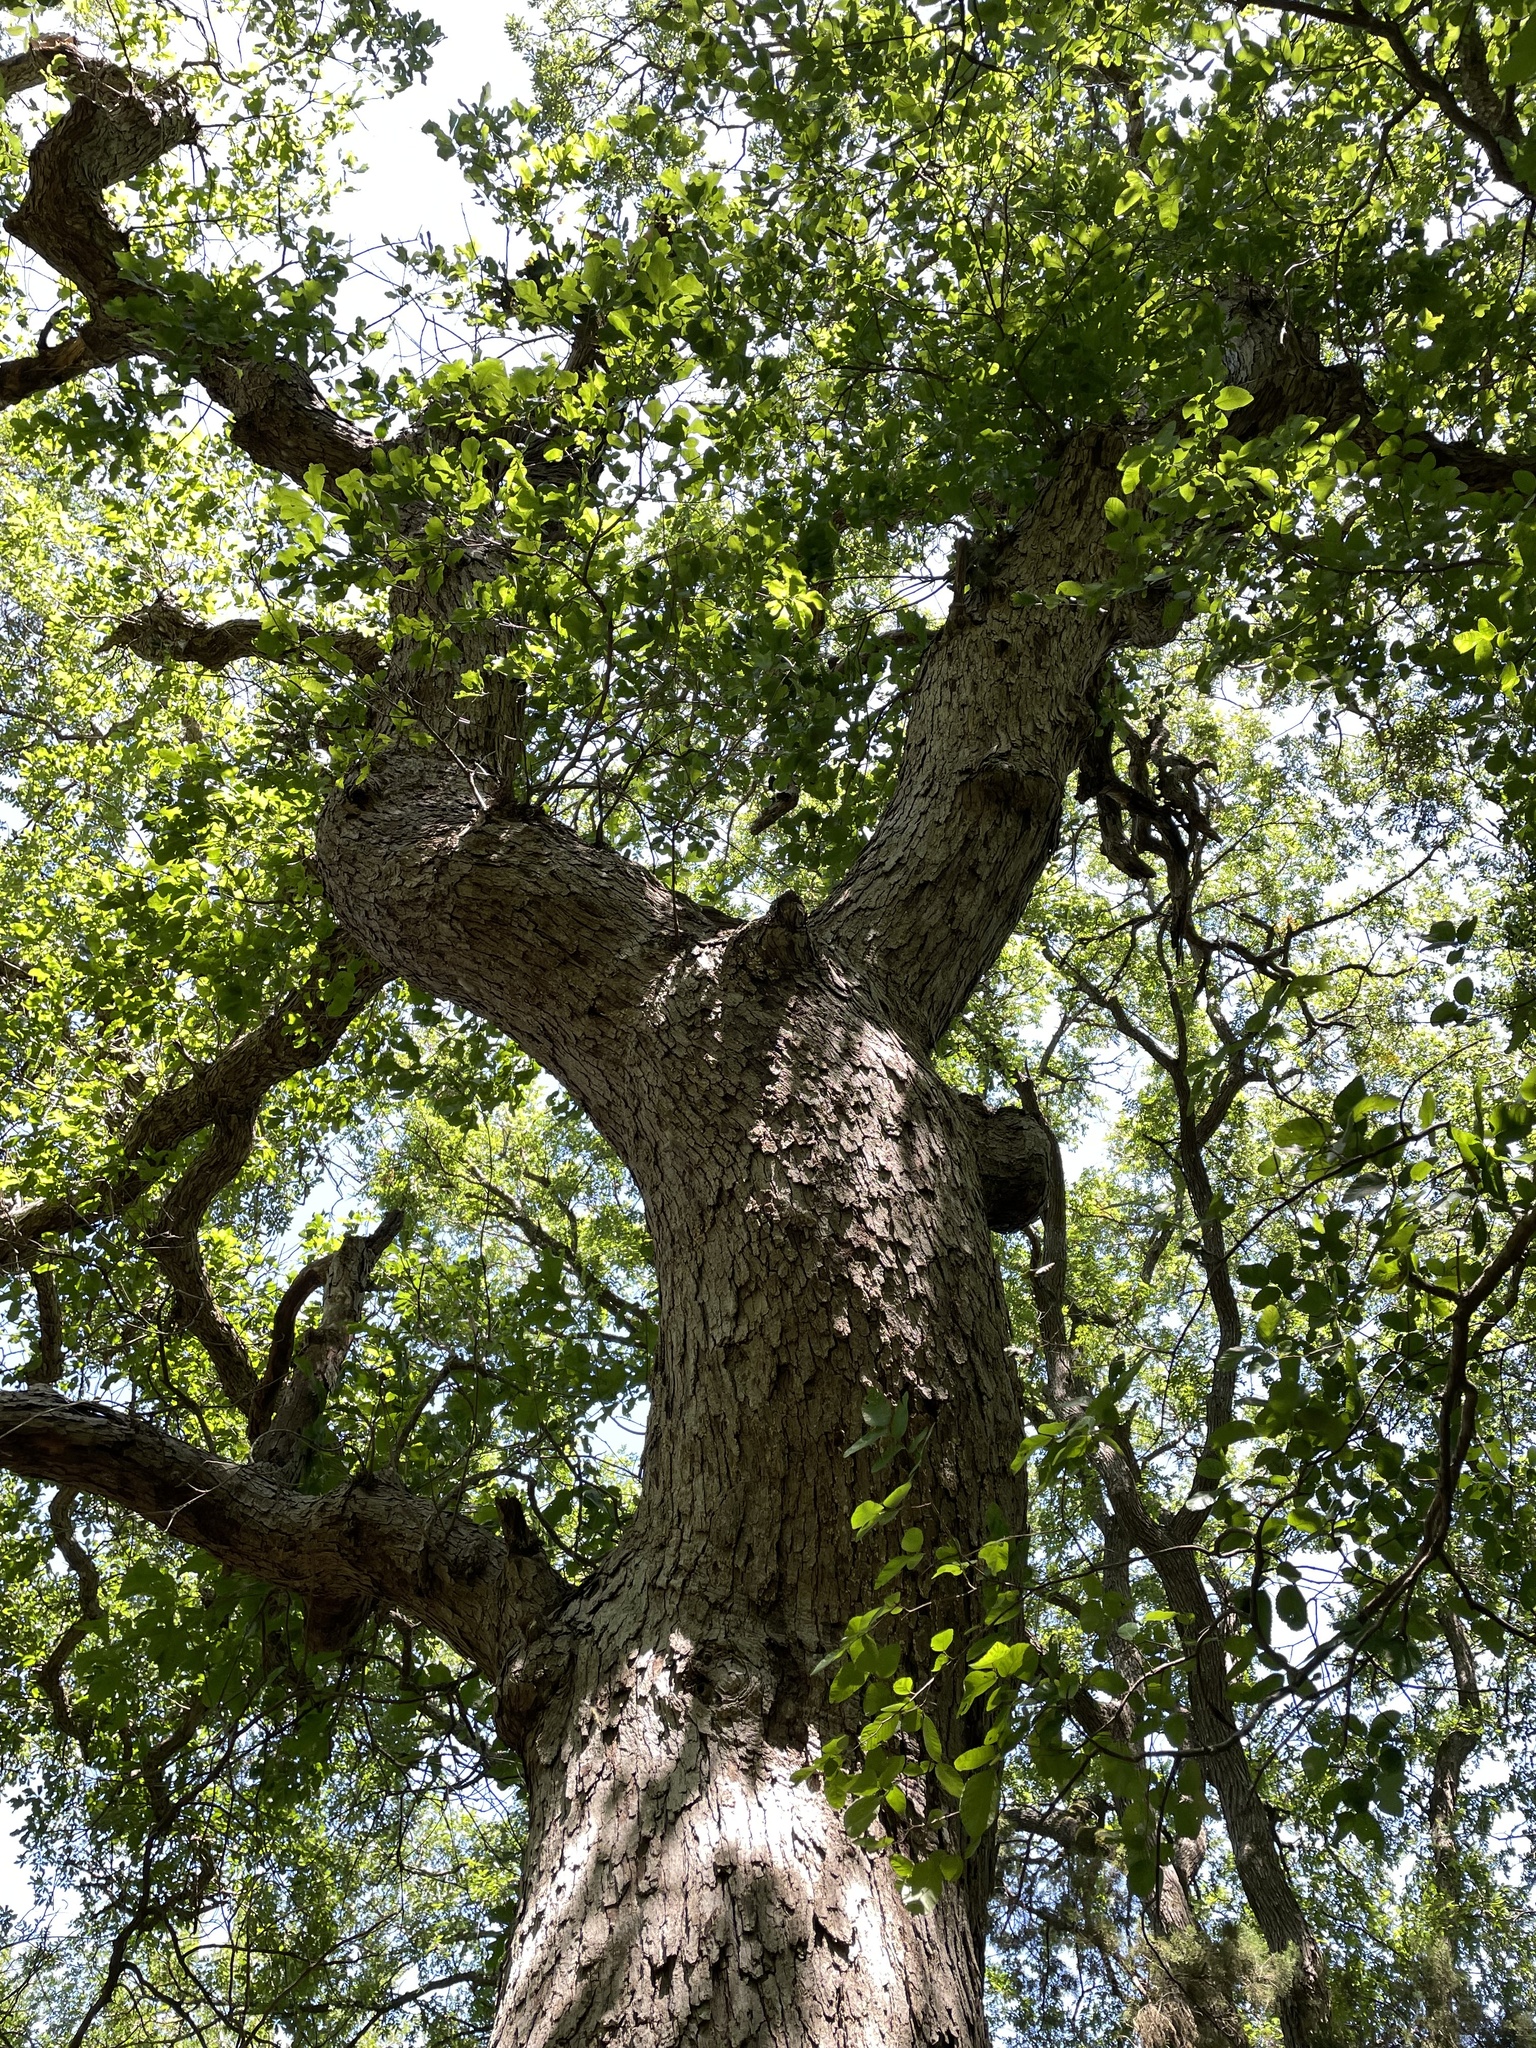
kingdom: Plantae
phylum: Tracheophyta
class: Magnoliopsida
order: Fagales
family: Fagaceae
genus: Quercus
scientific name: Quercus sinuata
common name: Durand oak
